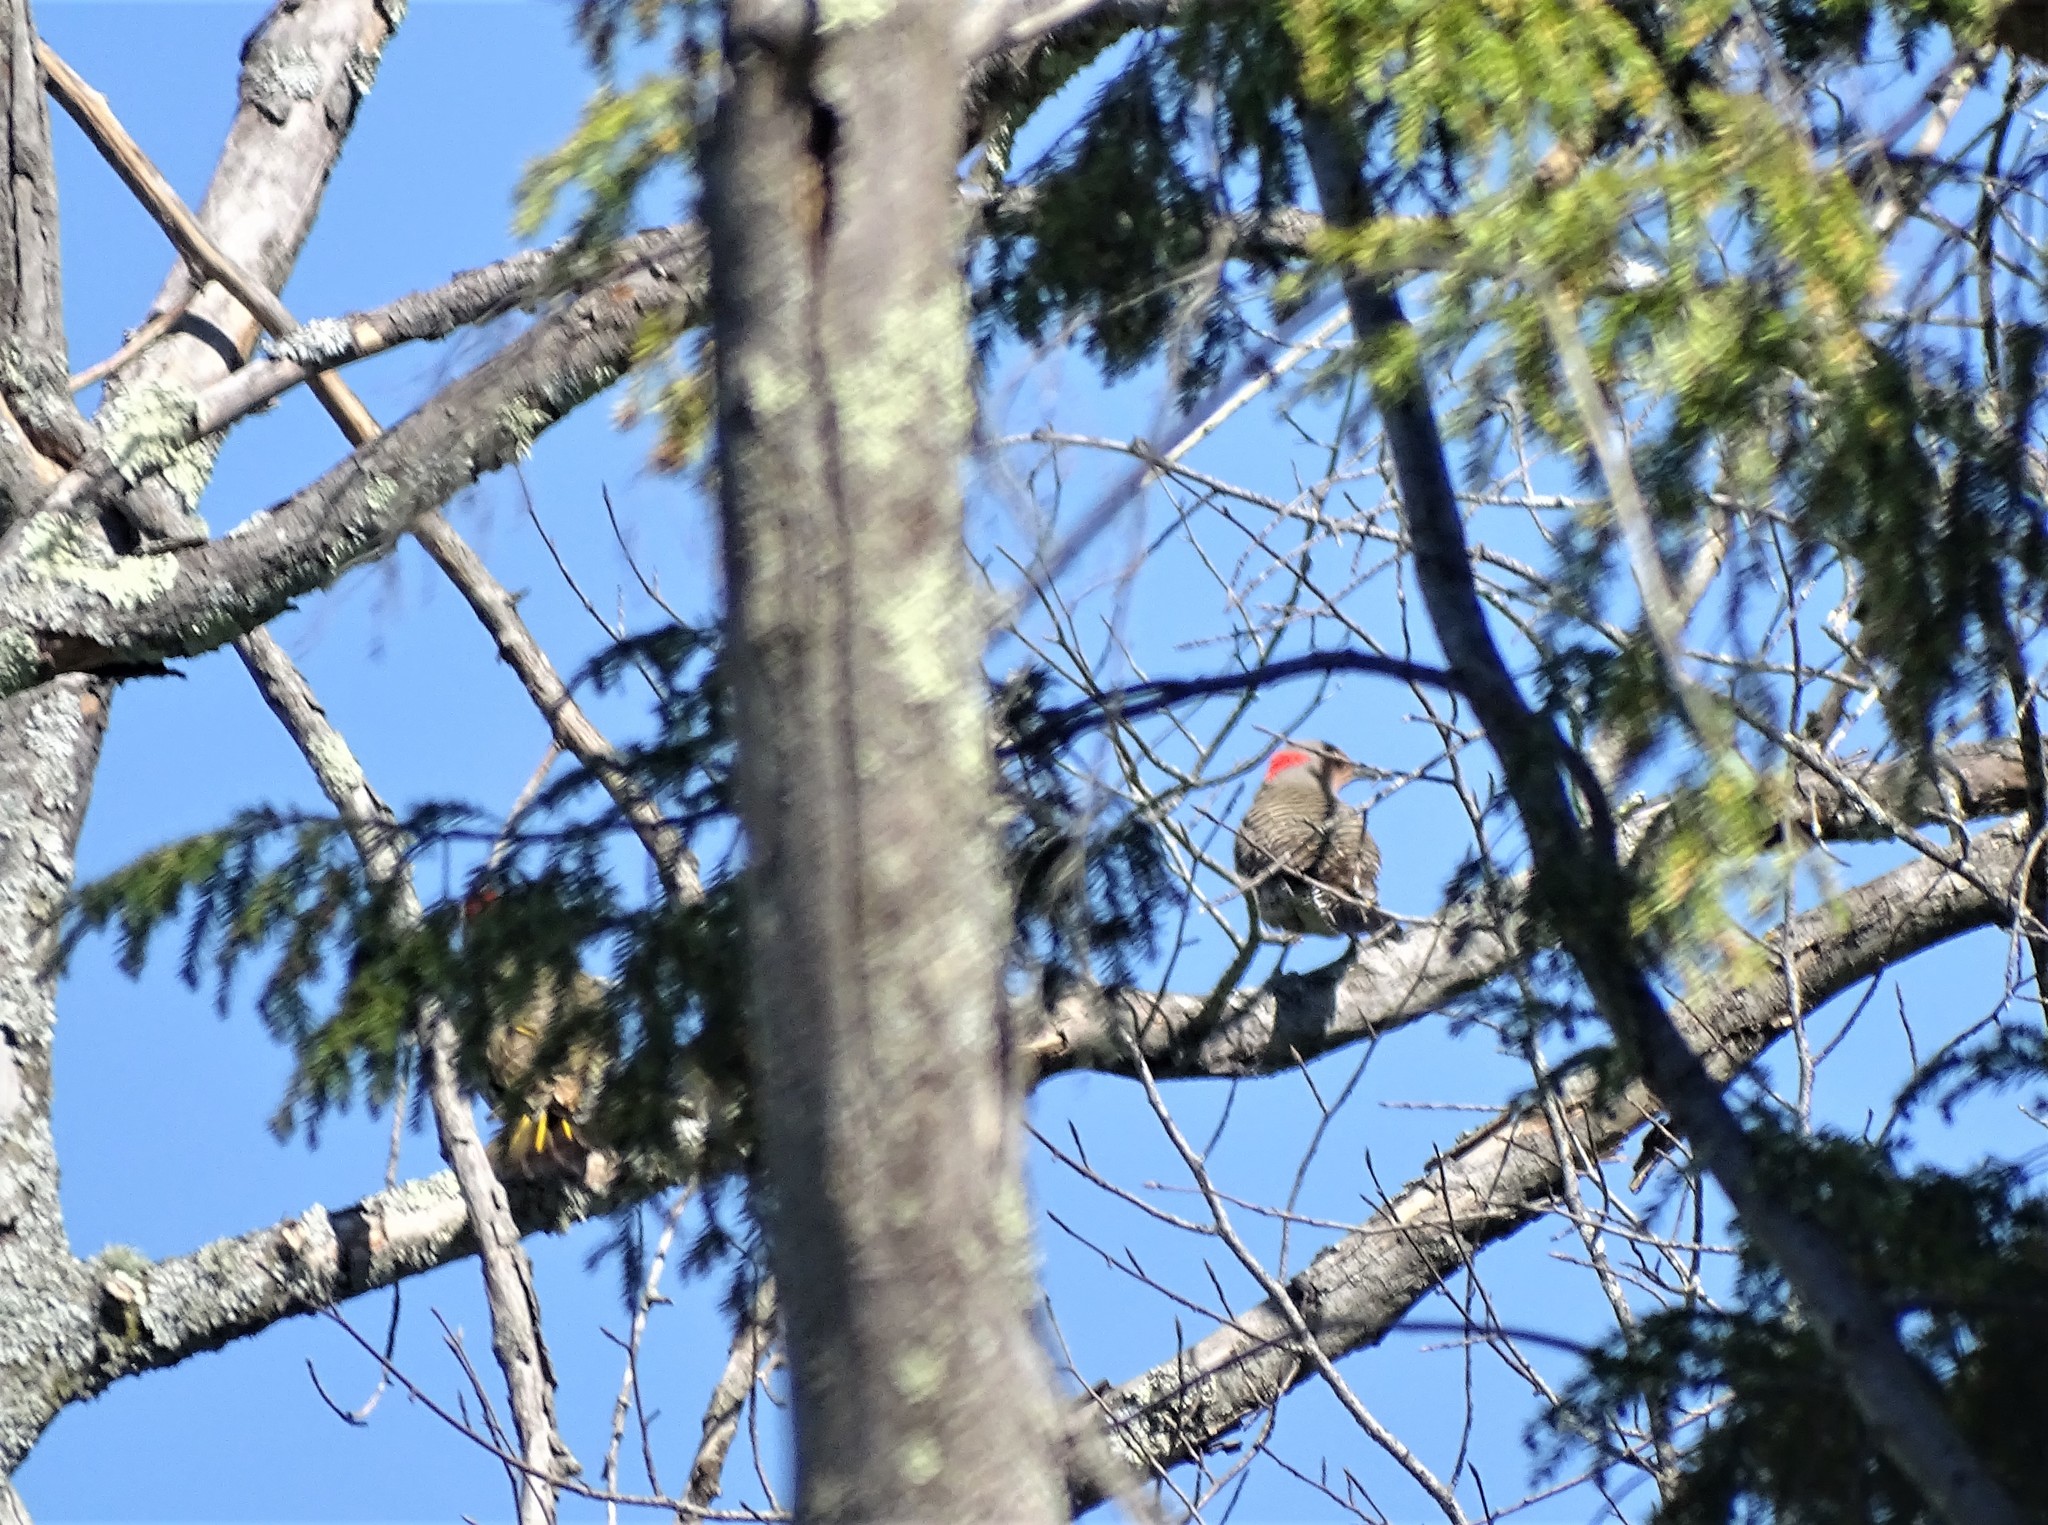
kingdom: Animalia
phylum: Chordata
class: Aves
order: Piciformes
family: Picidae
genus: Colaptes
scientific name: Colaptes auratus
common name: Northern flicker
